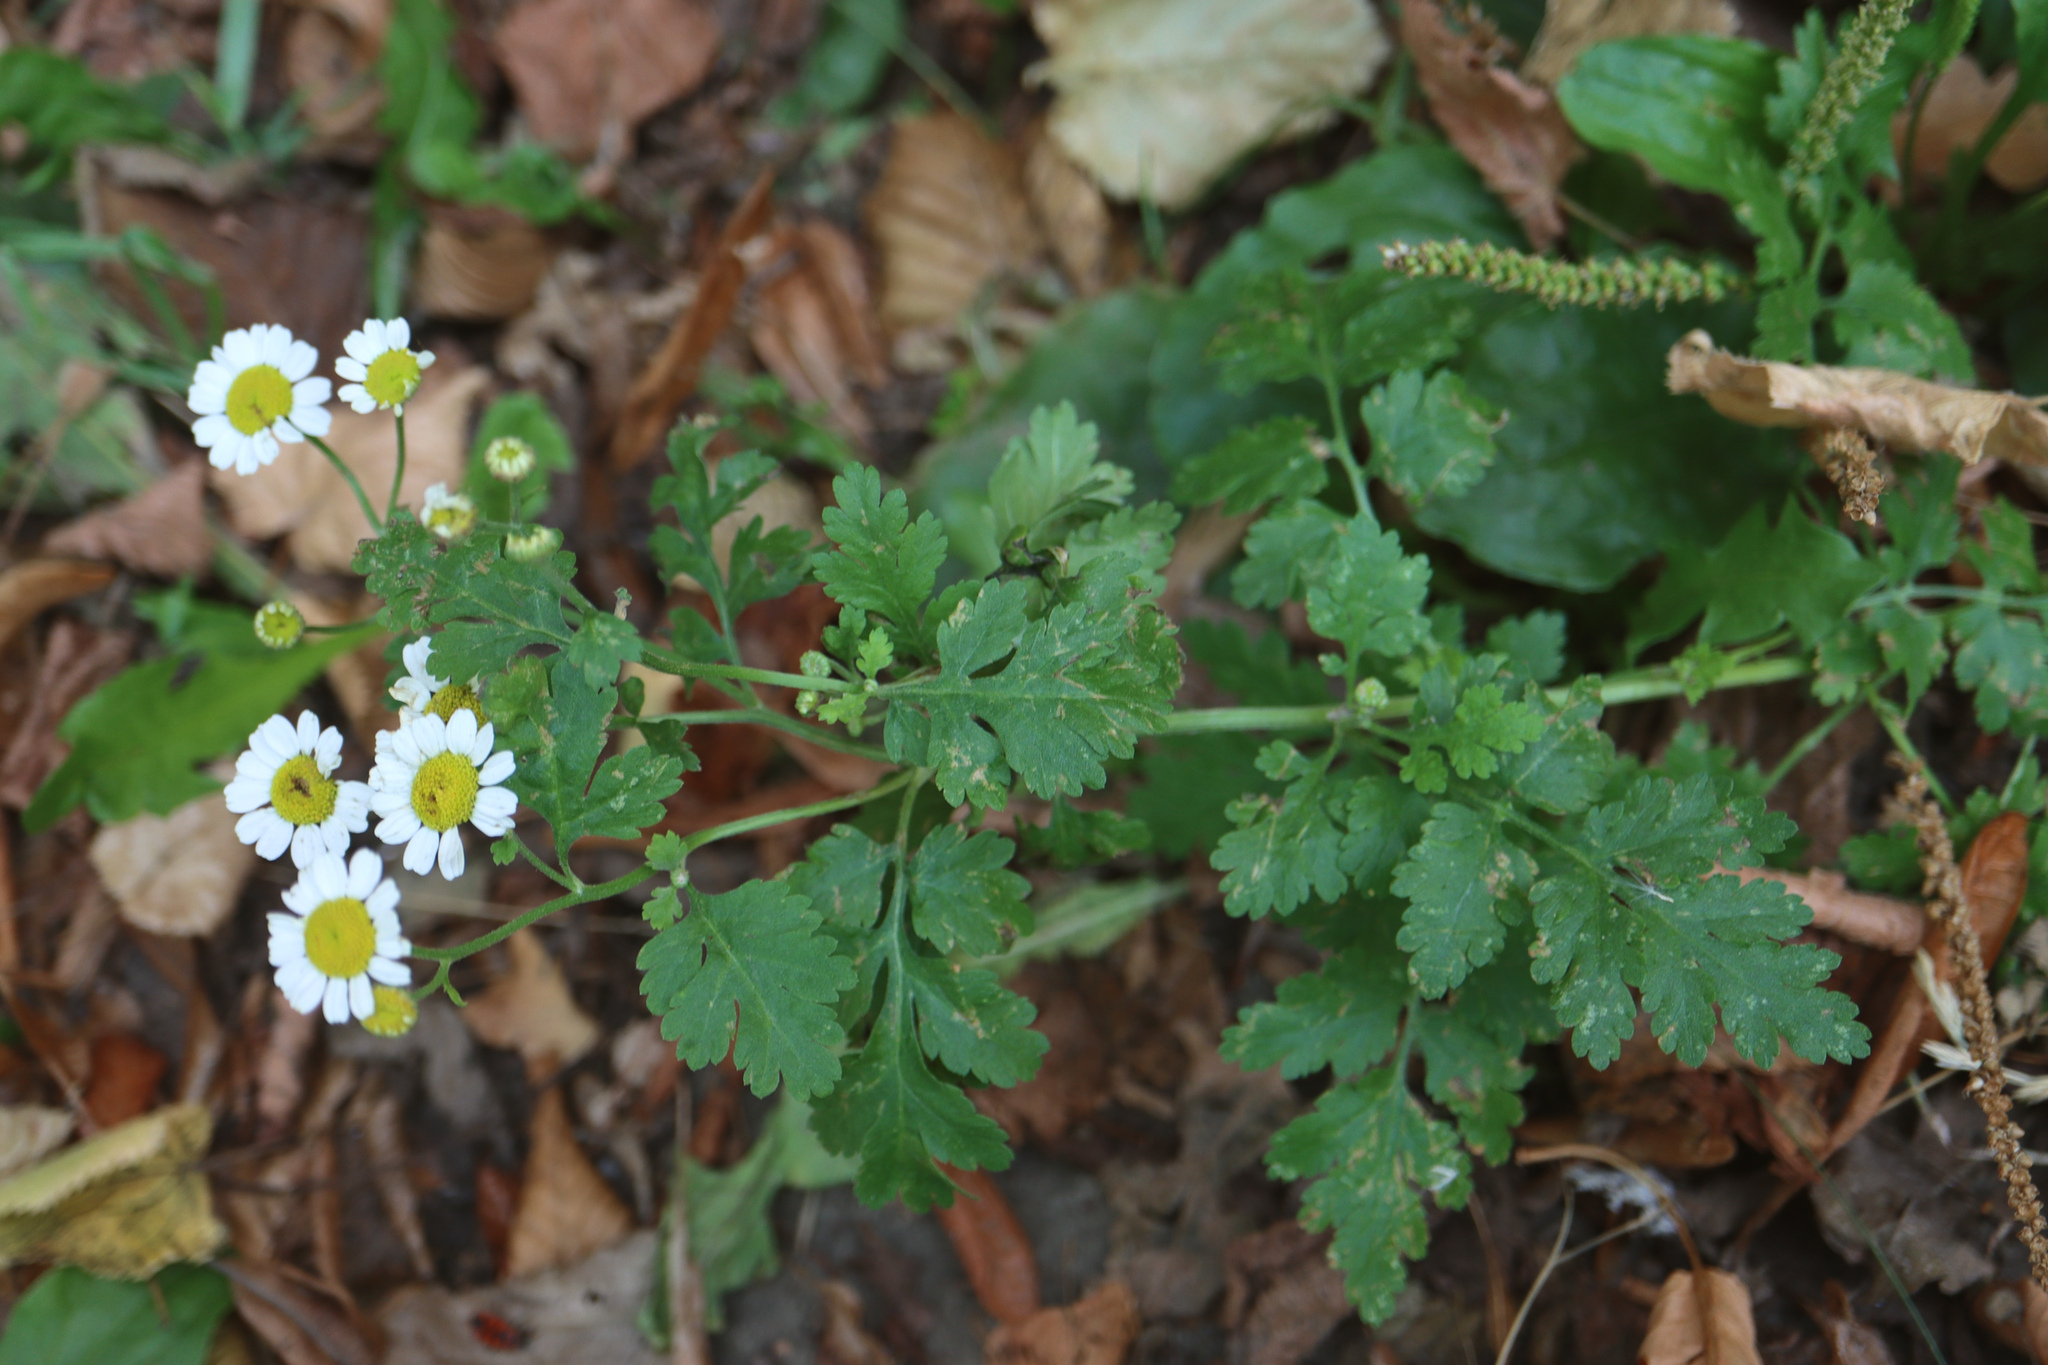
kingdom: Plantae
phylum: Tracheophyta
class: Magnoliopsida
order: Asterales
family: Asteraceae
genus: Tanacetum
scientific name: Tanacetum parthenium
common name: Feverfew
